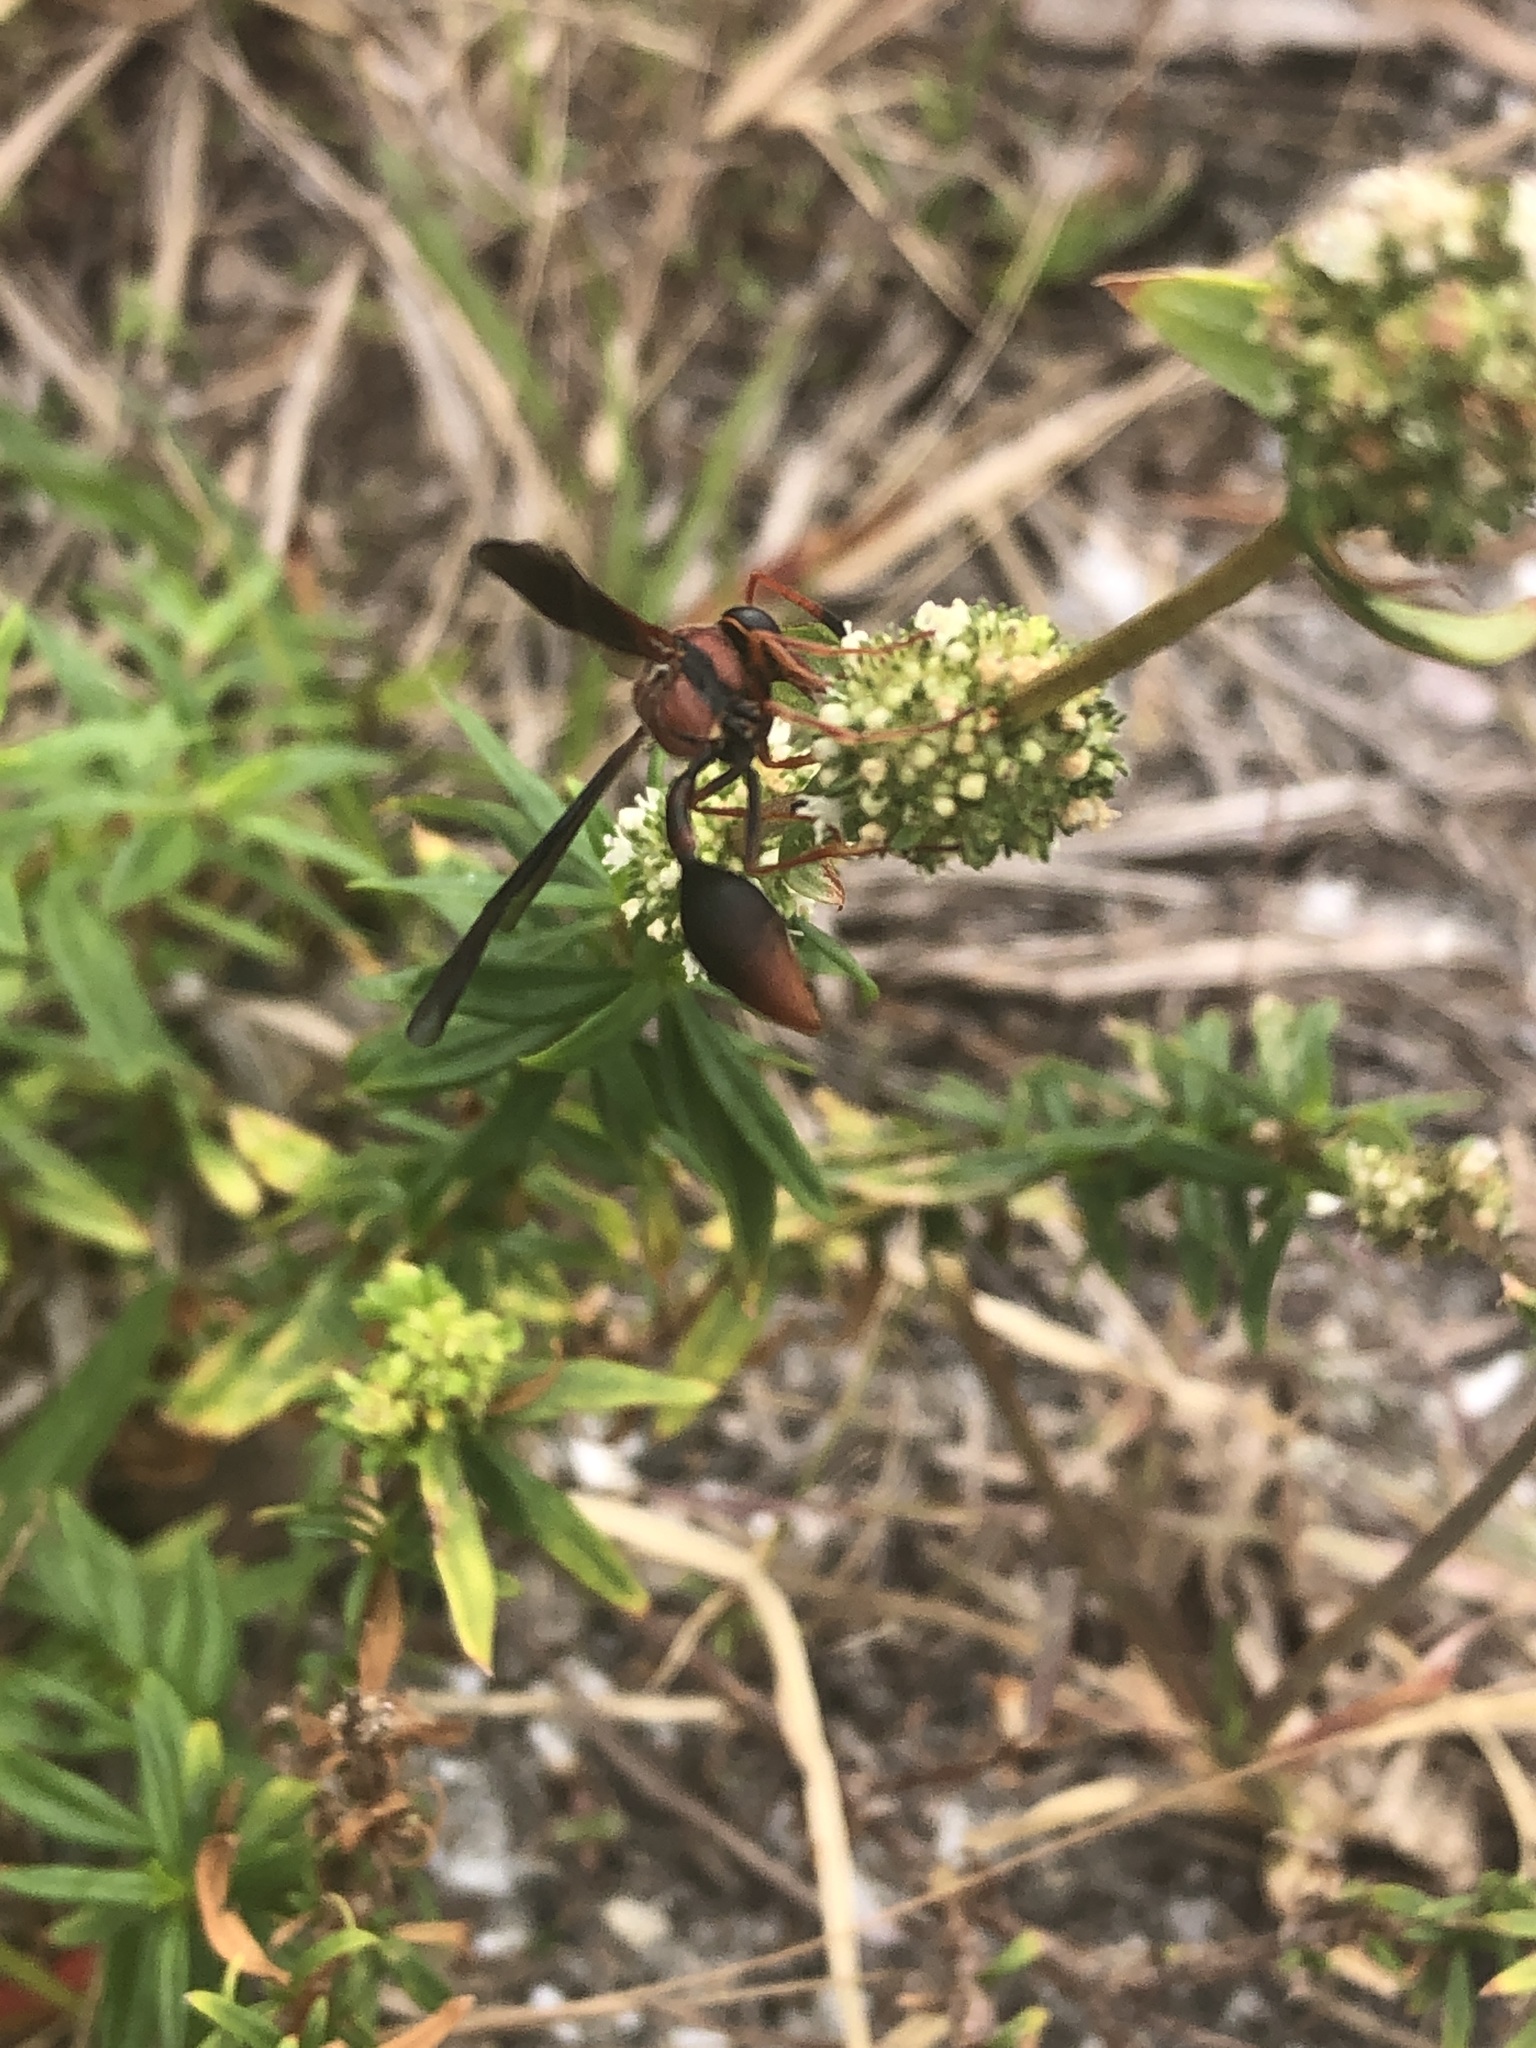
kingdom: Animalia
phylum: Arthropoda
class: Insecta
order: Hymenoptera
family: Eumenidae
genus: Zeta
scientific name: Zeta argillaceum
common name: Potter wasp
